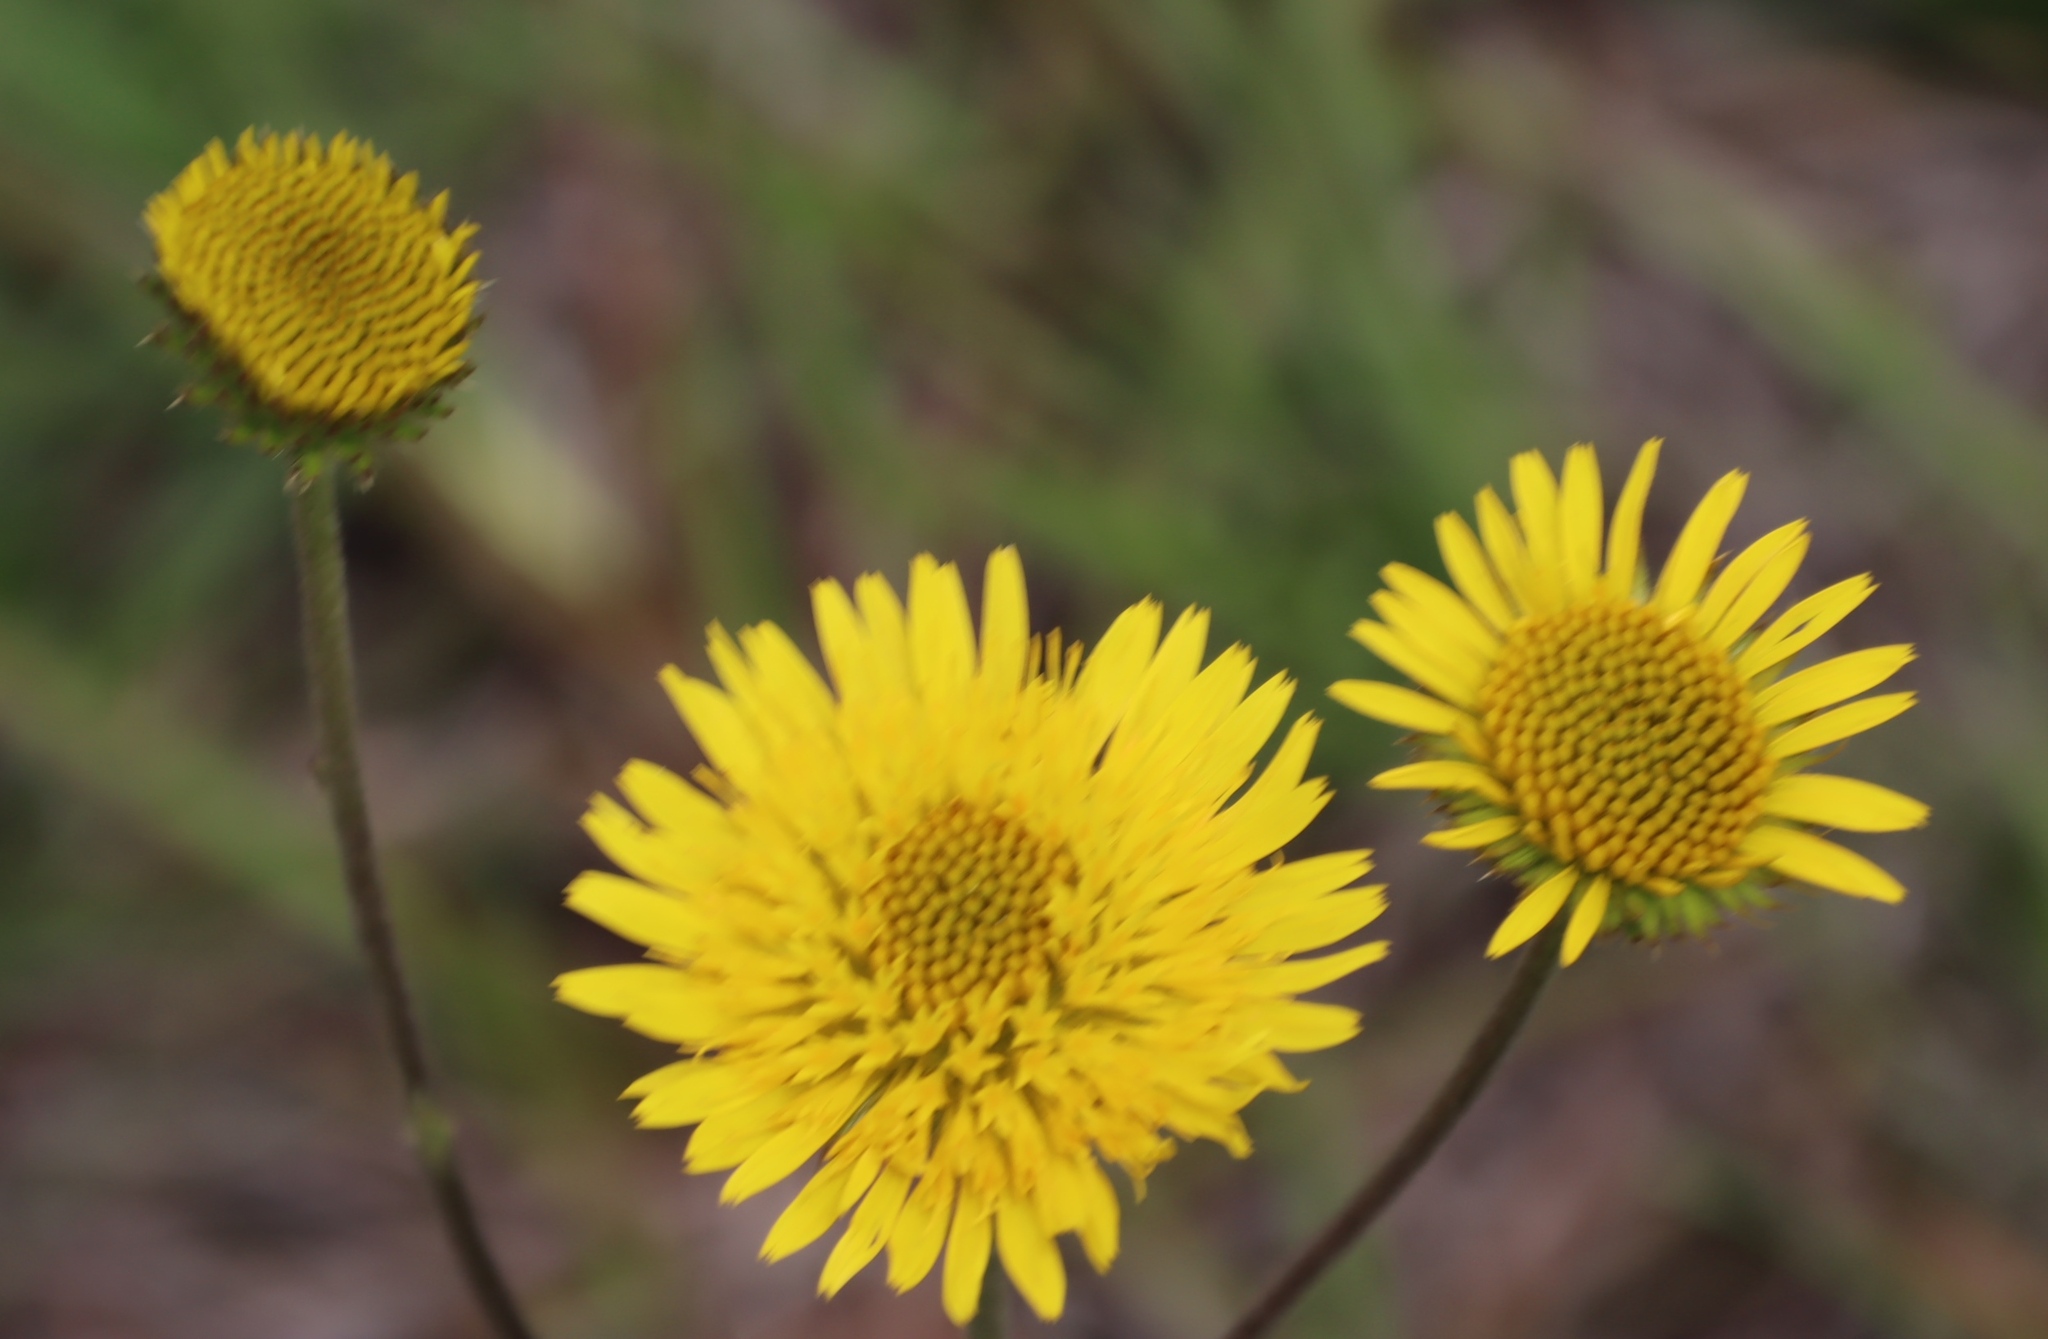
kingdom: Plantae
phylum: Tracheophyta
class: Magnoliopsida
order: Asterales
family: Asteraceae
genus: Berkheya
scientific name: Berkheya speciosa
